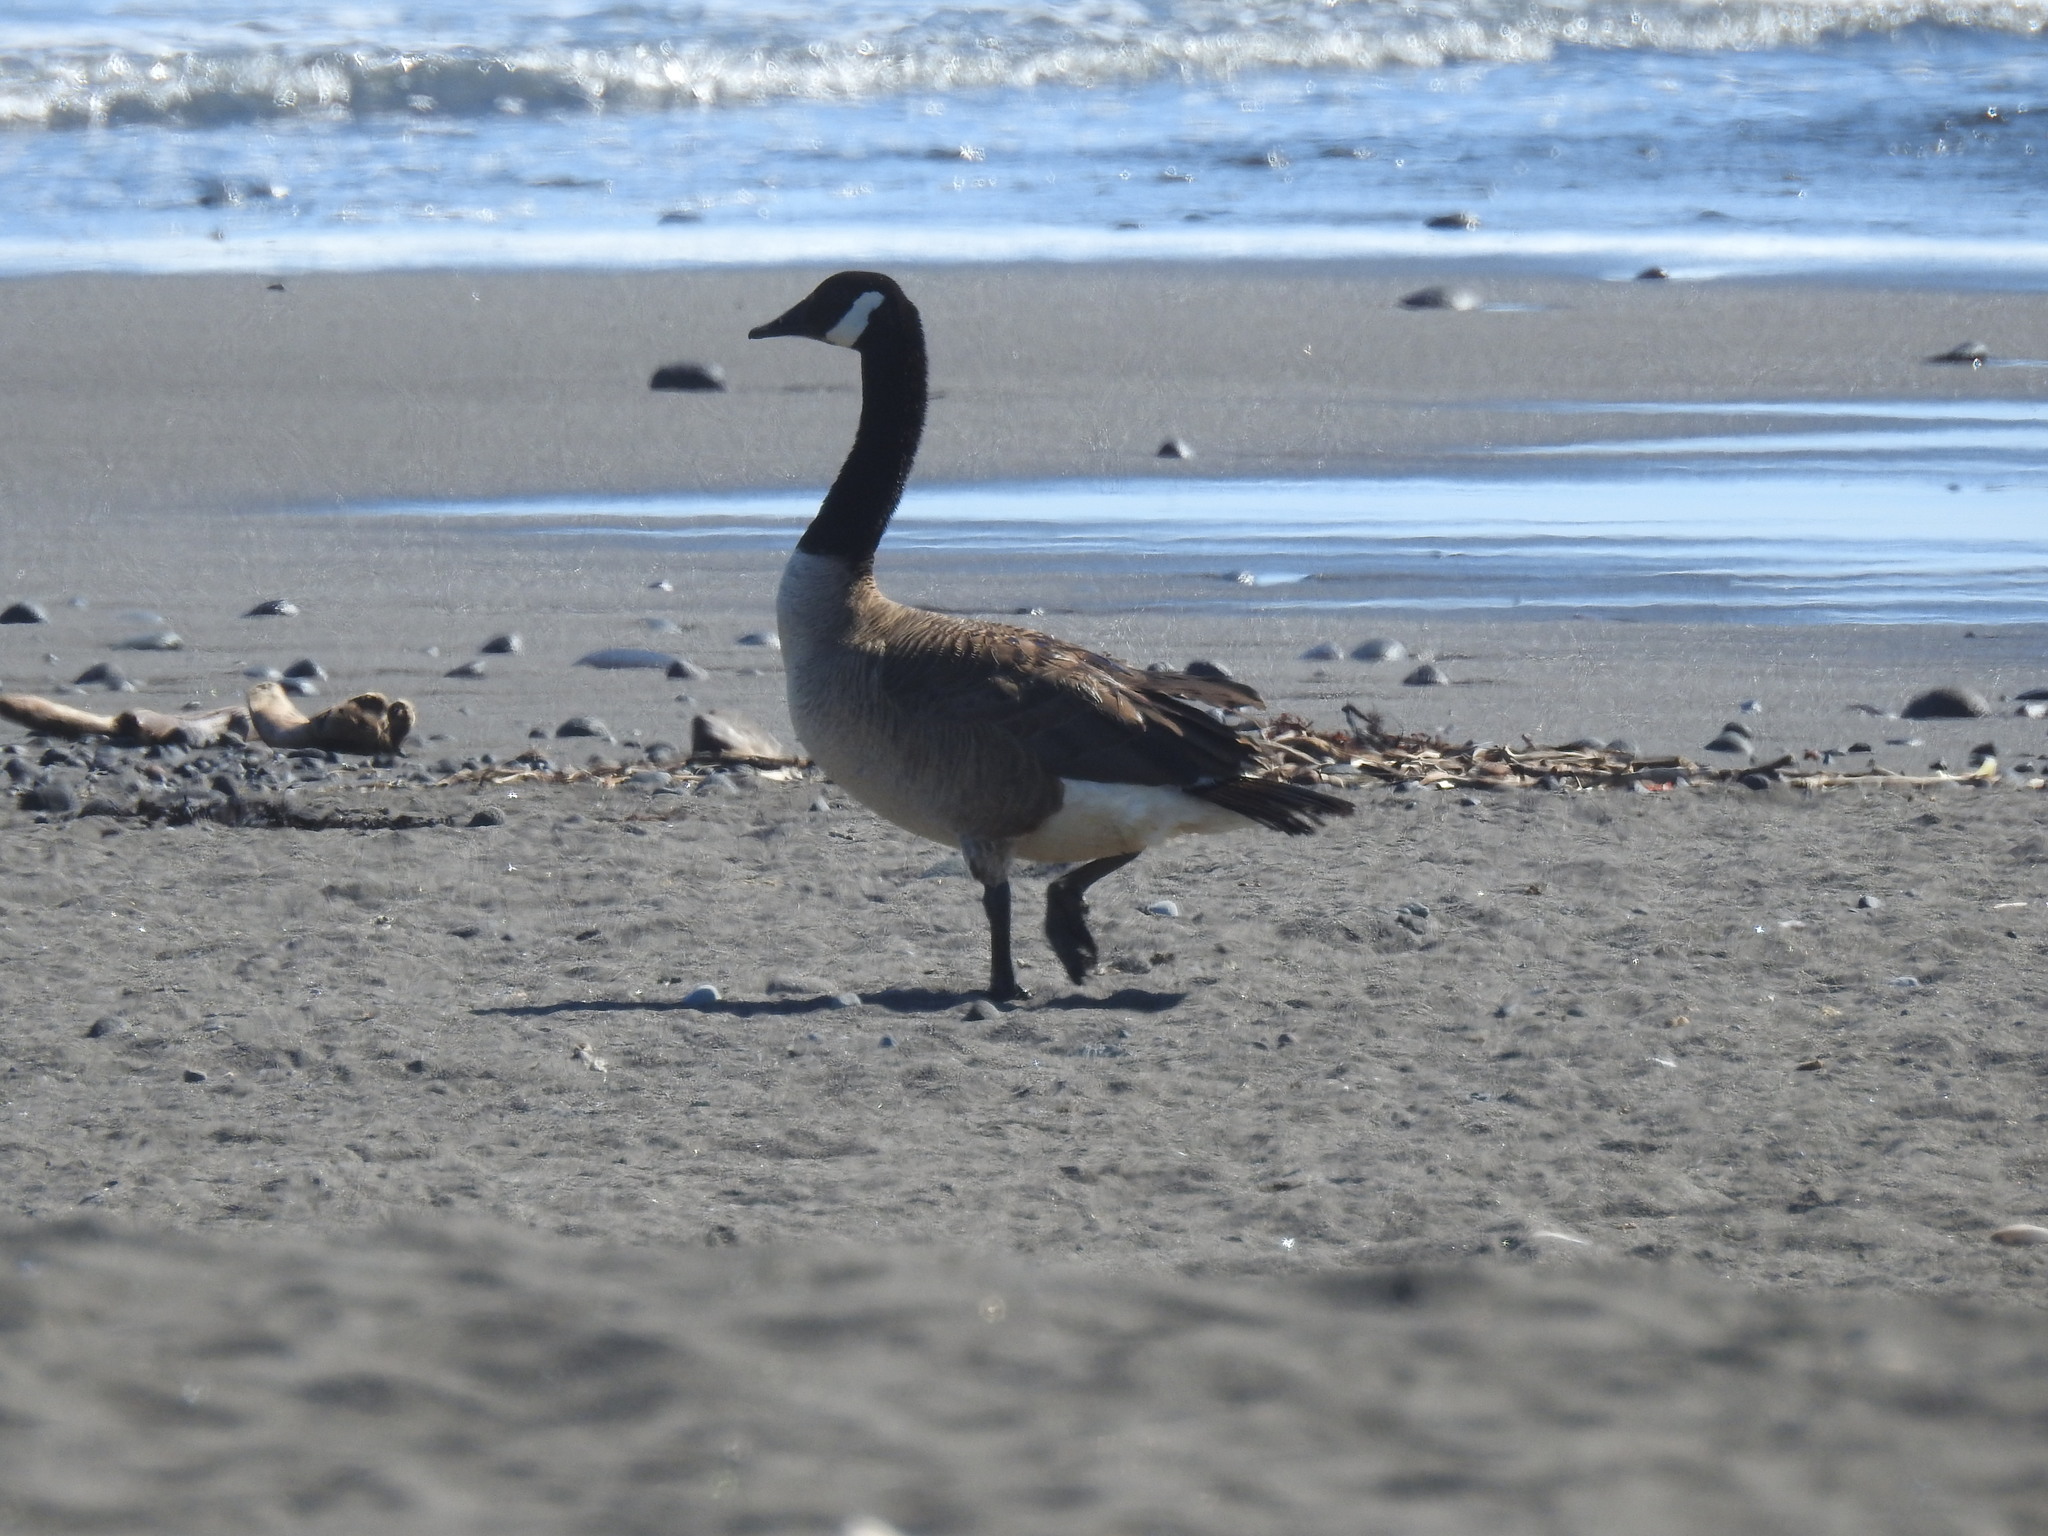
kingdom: Animalia
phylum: Chordata
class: Aves
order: Anseriformes
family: Anatidae
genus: Branta
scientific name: Branta canadensis
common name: Canada goose
